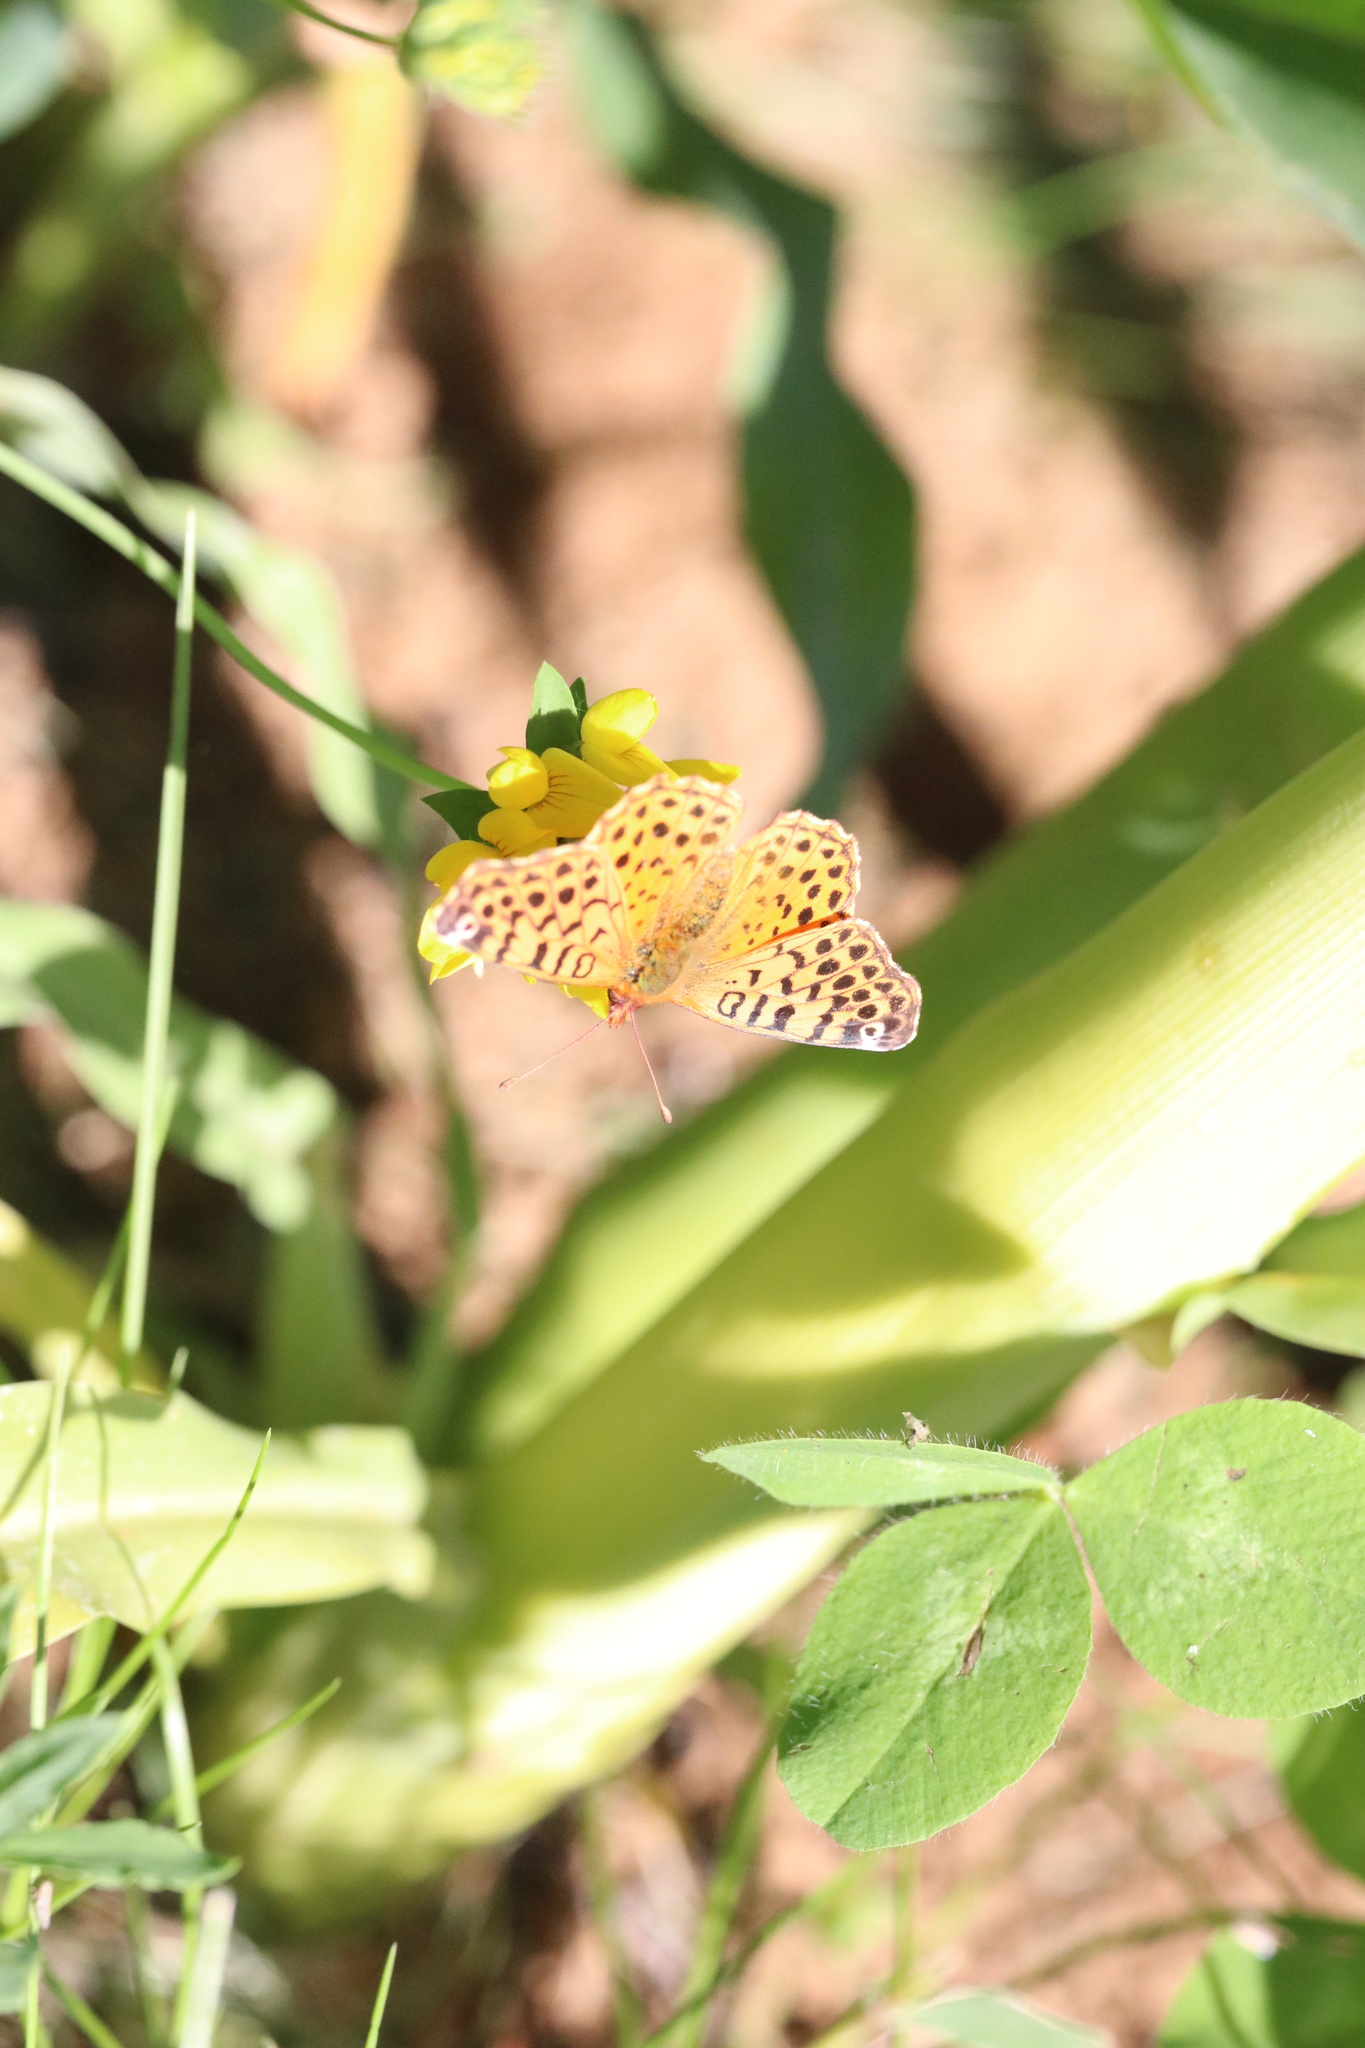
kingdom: Animalia
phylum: Arthropoda
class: Insecta
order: Lepidoptera
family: Nymphalidae
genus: Issoria
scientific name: Issoria Yramea cytheris
